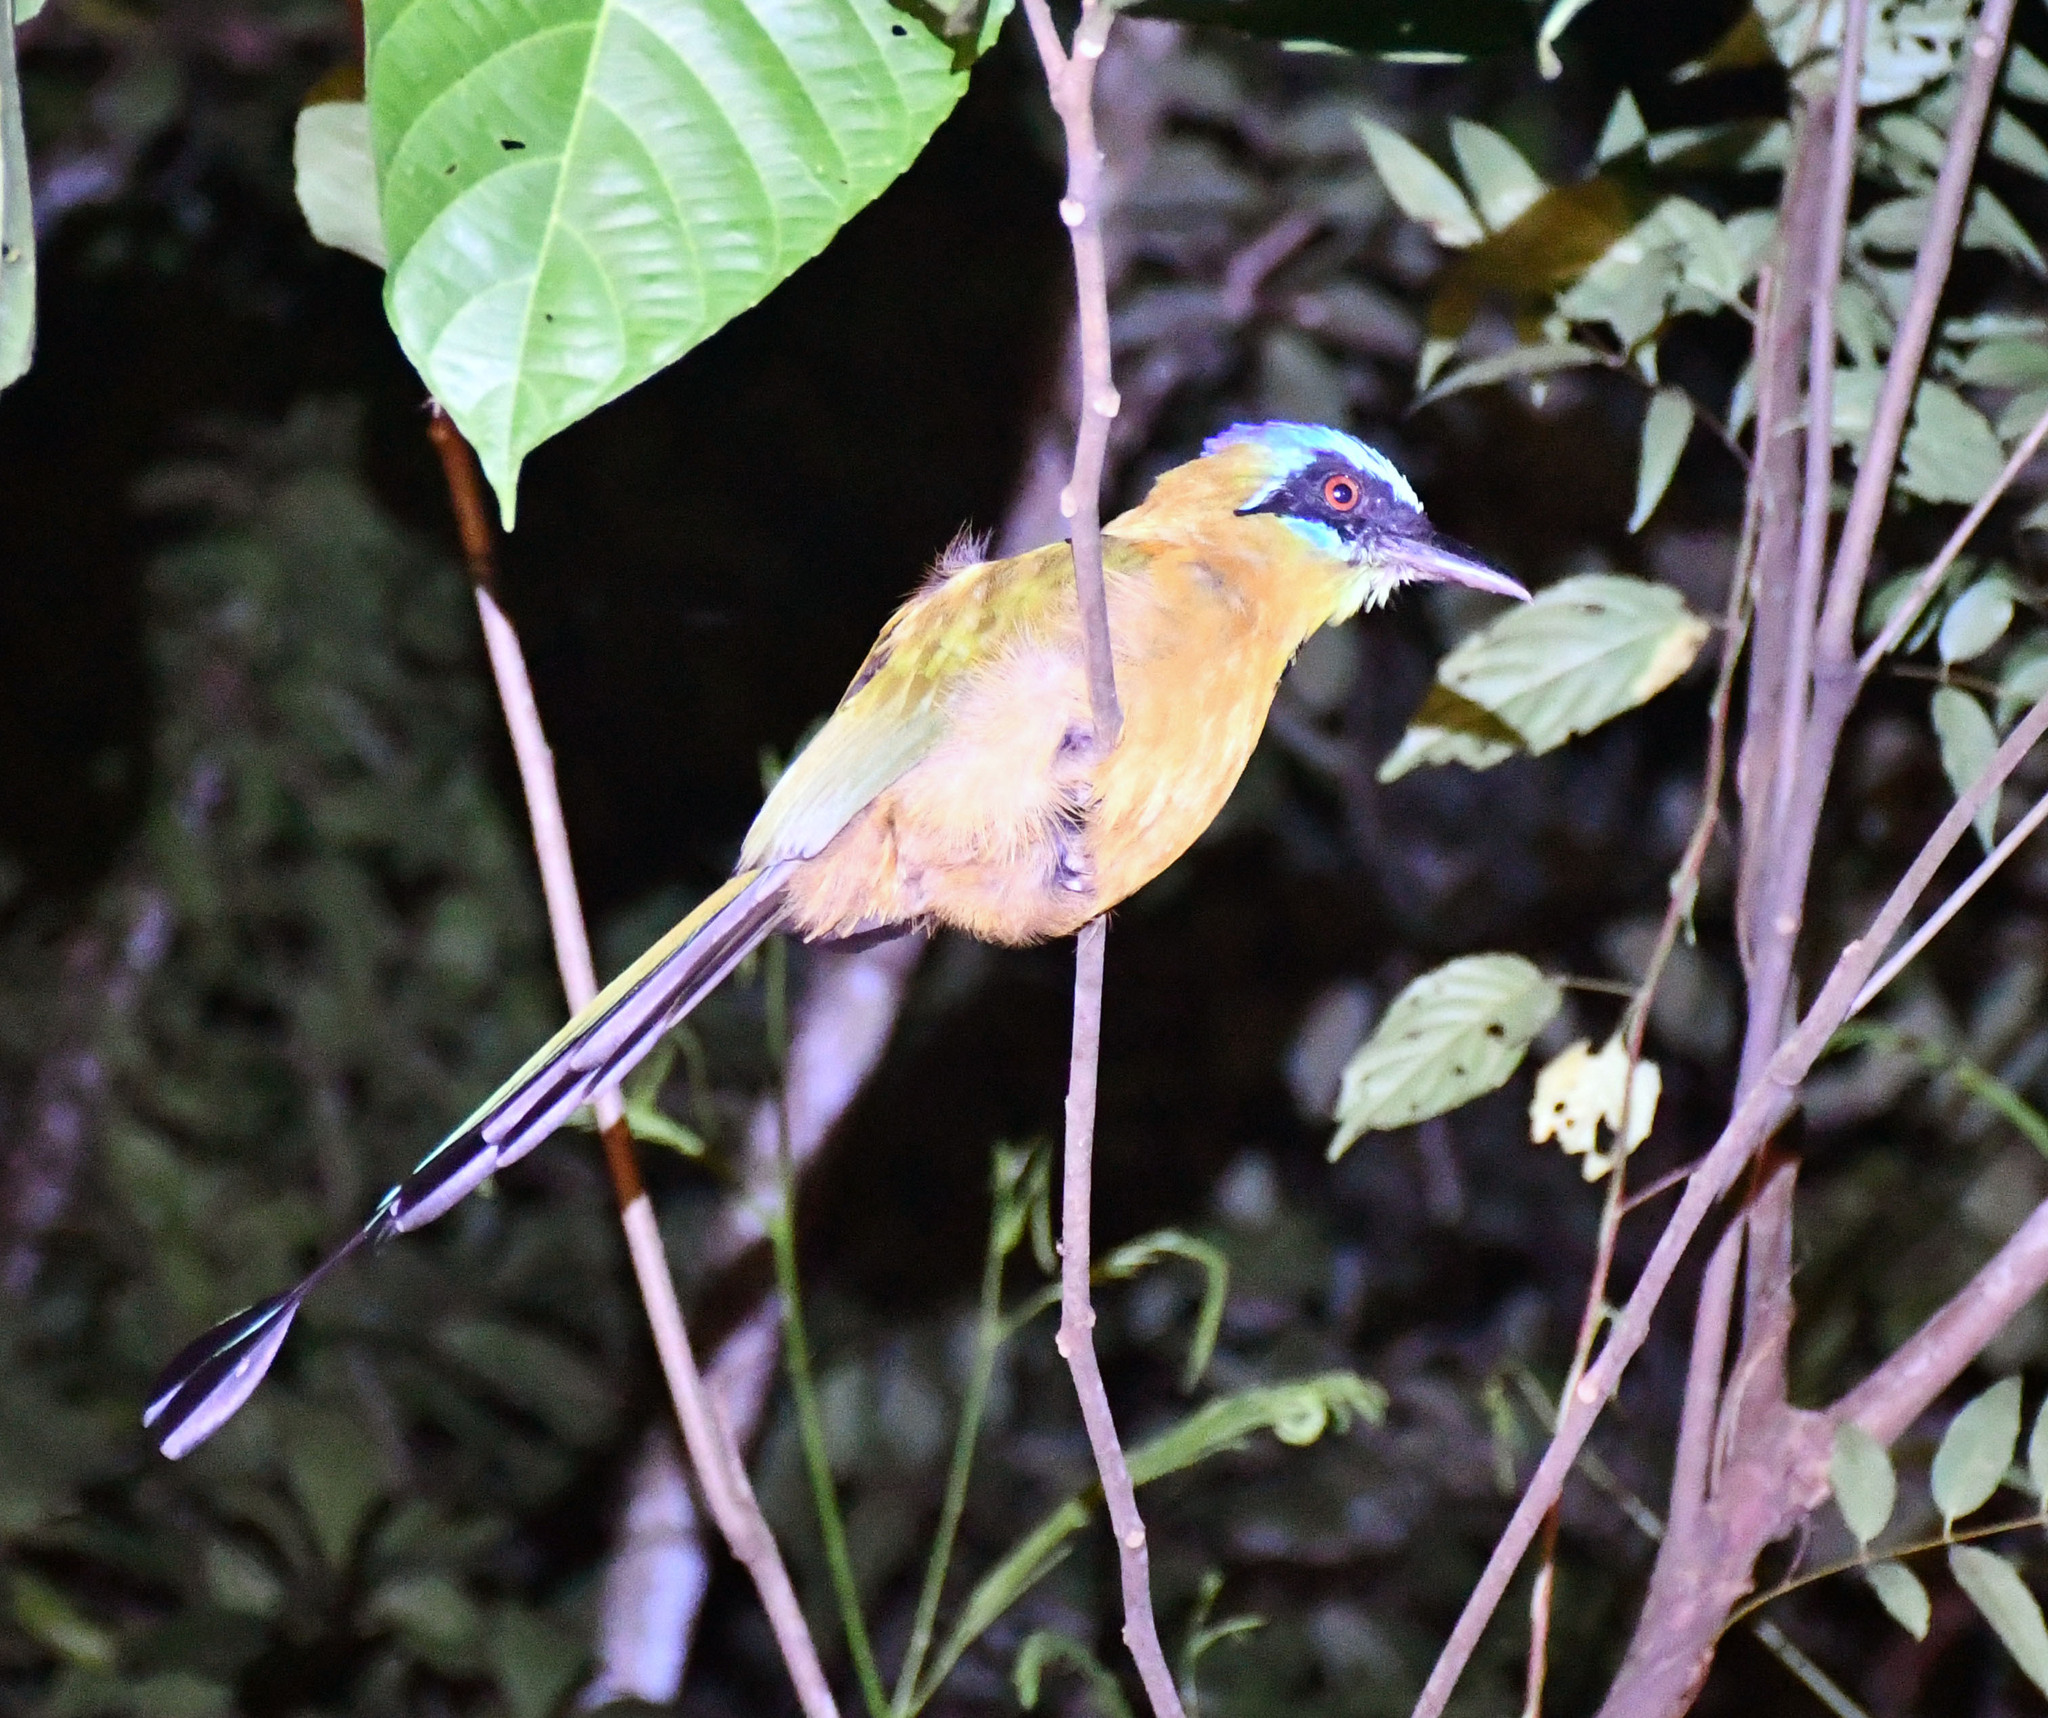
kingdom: Animalia
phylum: Chordata
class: Aves
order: Coraciiformes
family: Momotidae
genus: Momotus
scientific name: Momotus momota
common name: Amazonian motmot
